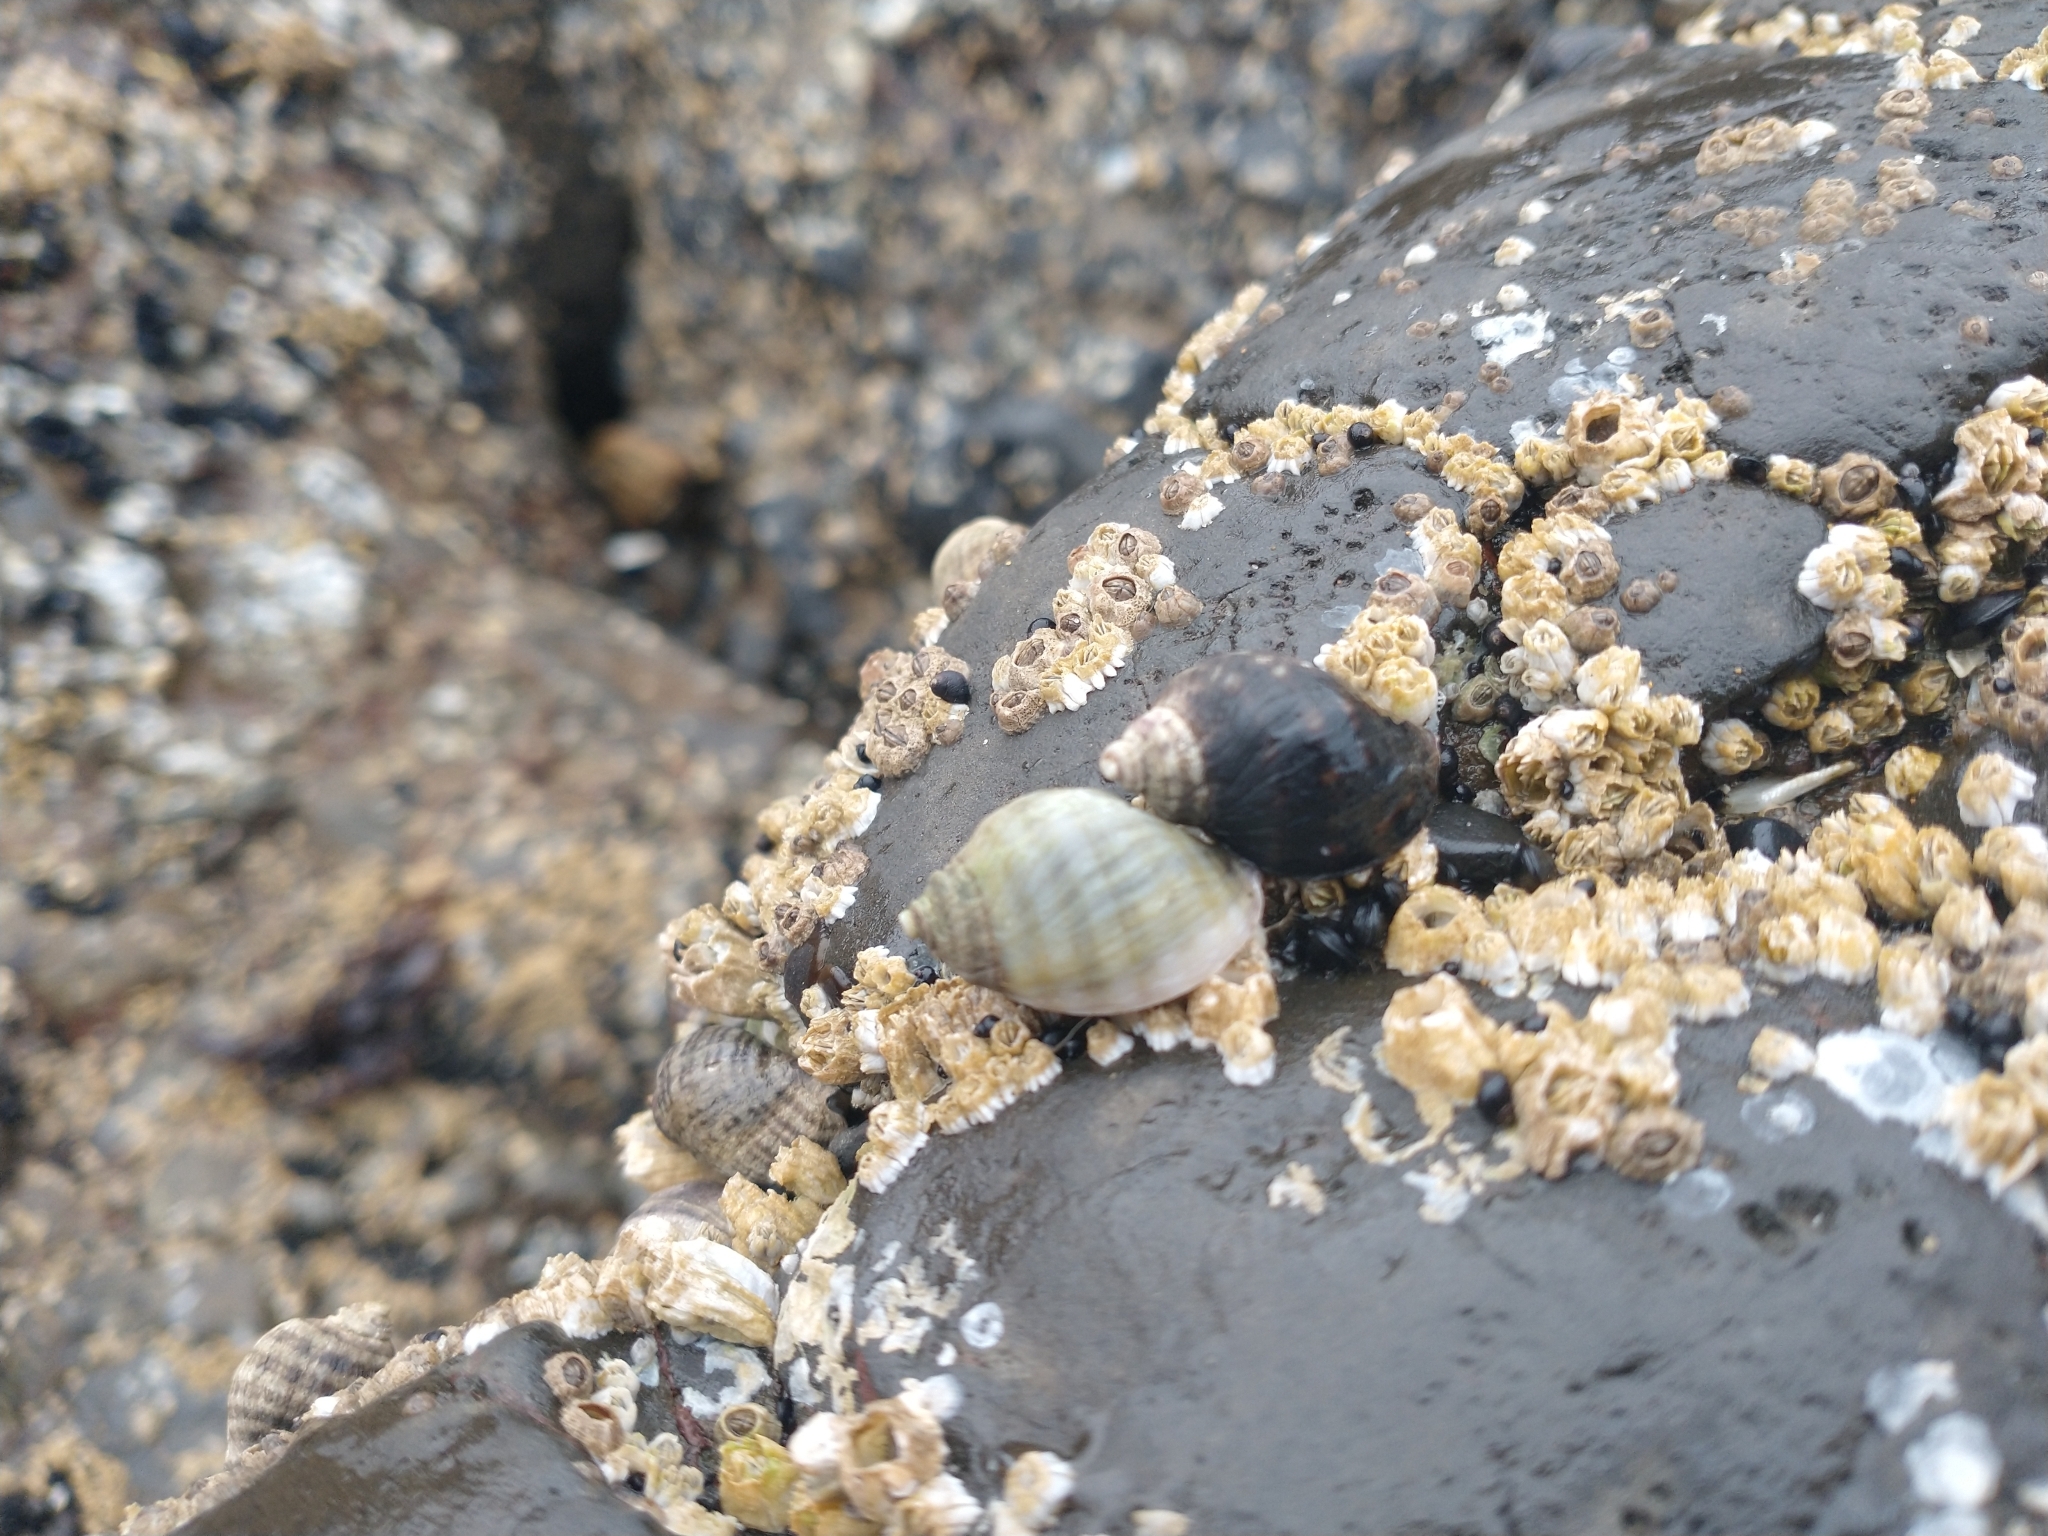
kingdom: Animalia
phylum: Mollusca
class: Gastropoda
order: Neogastropoda
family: Muricidae
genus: Nucella
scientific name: Nucella ostrina
